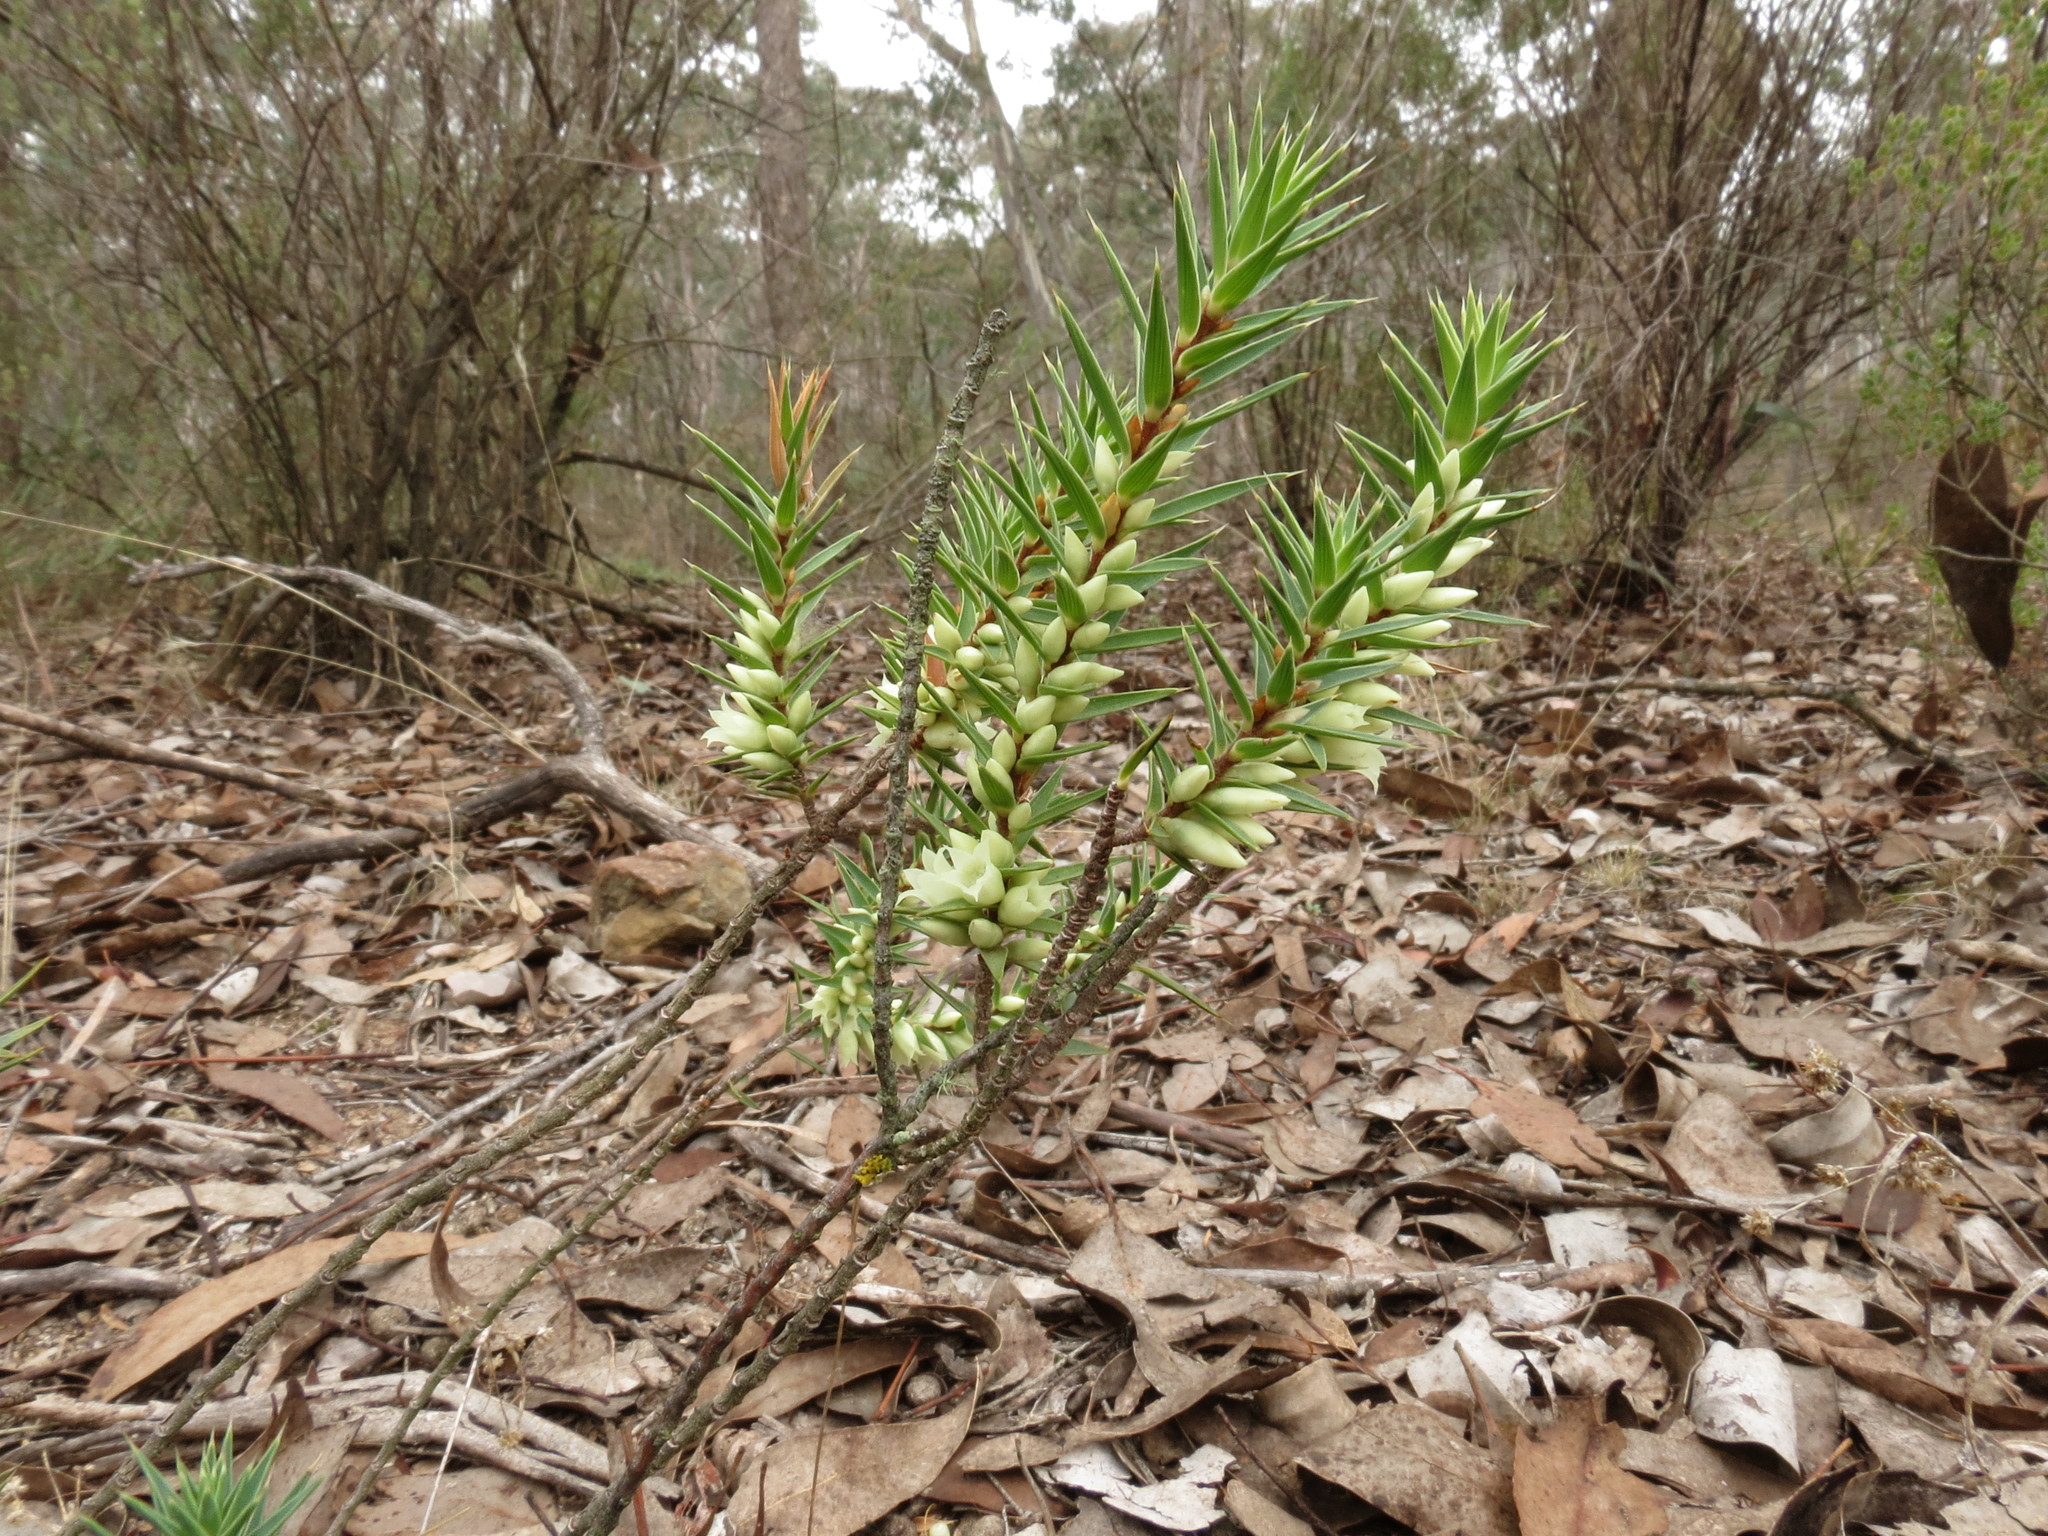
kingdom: Plantae
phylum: Tracheophyta
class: Magnoliopsida
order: Ericales
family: Ericaceae
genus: Melichrus
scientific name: Melichrus urceolatus
